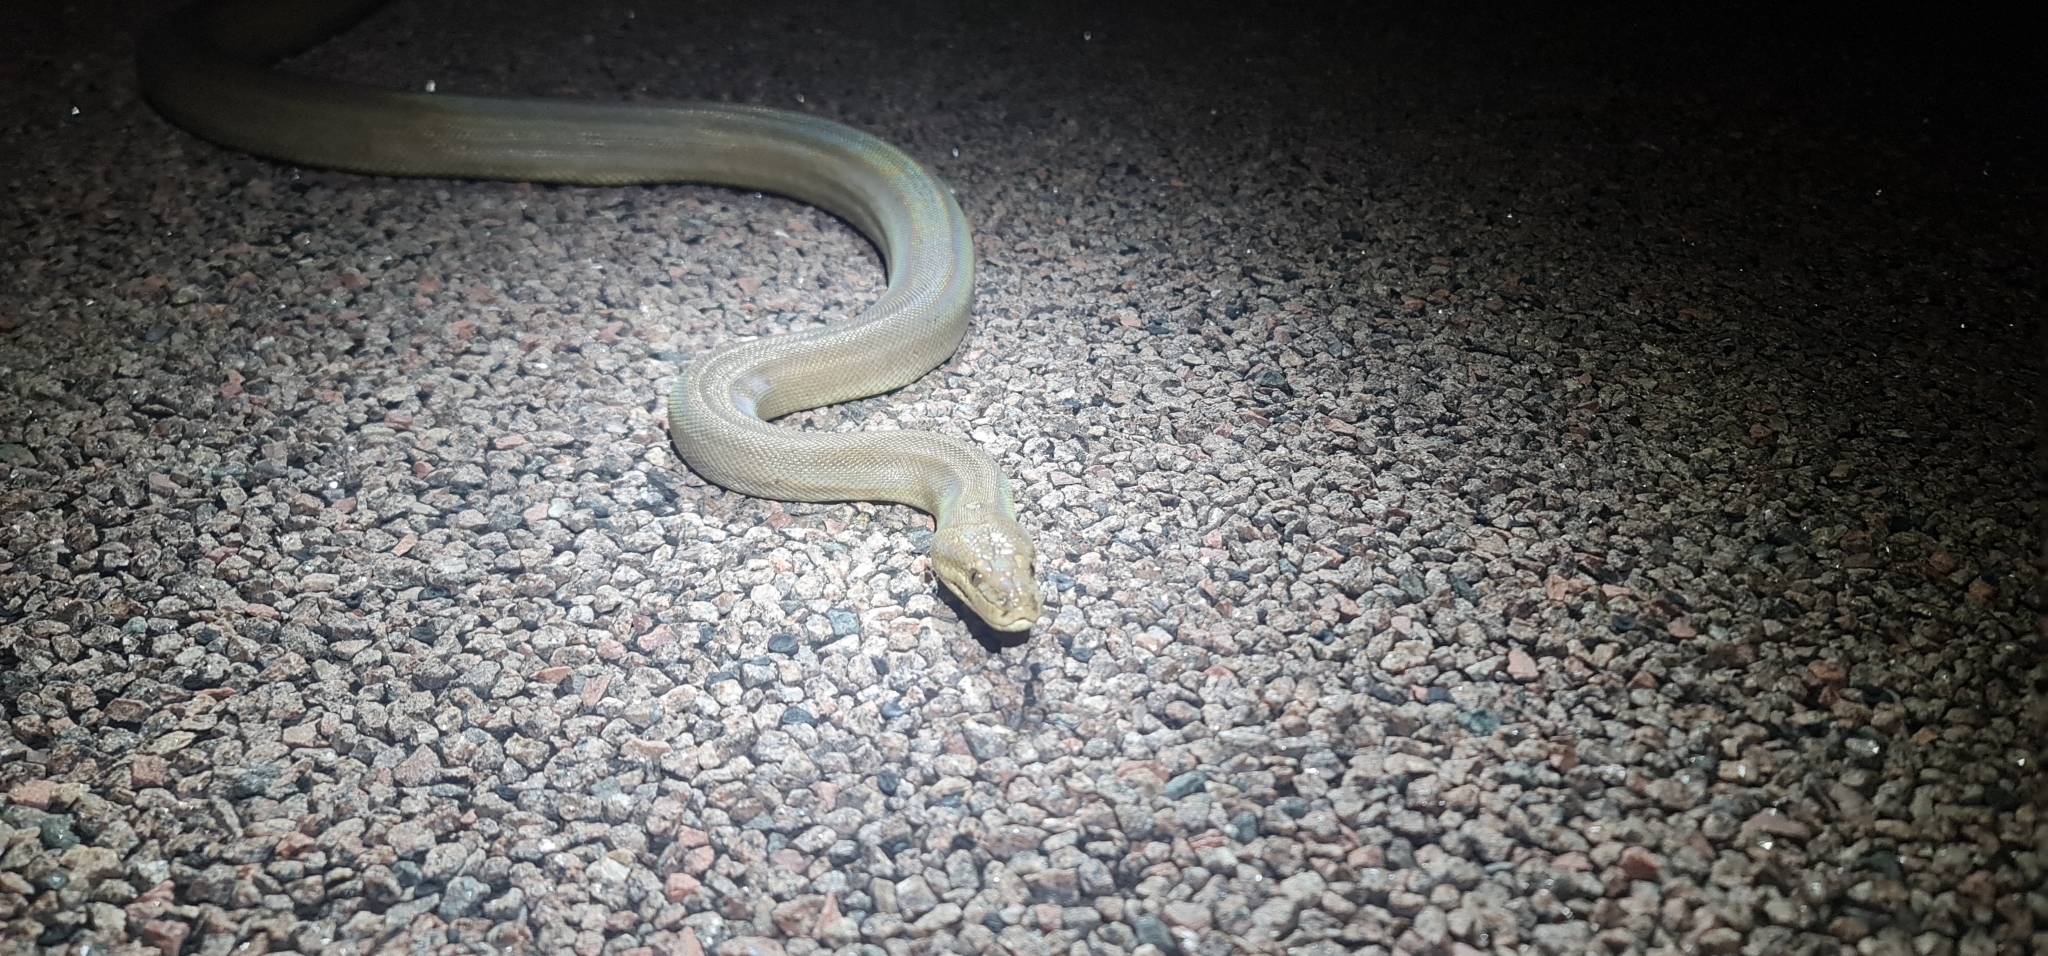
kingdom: Animalia
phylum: Chordata
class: Squamata
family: Pythonidae
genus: Liasis
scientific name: Liasis olivaceus
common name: Olive python
